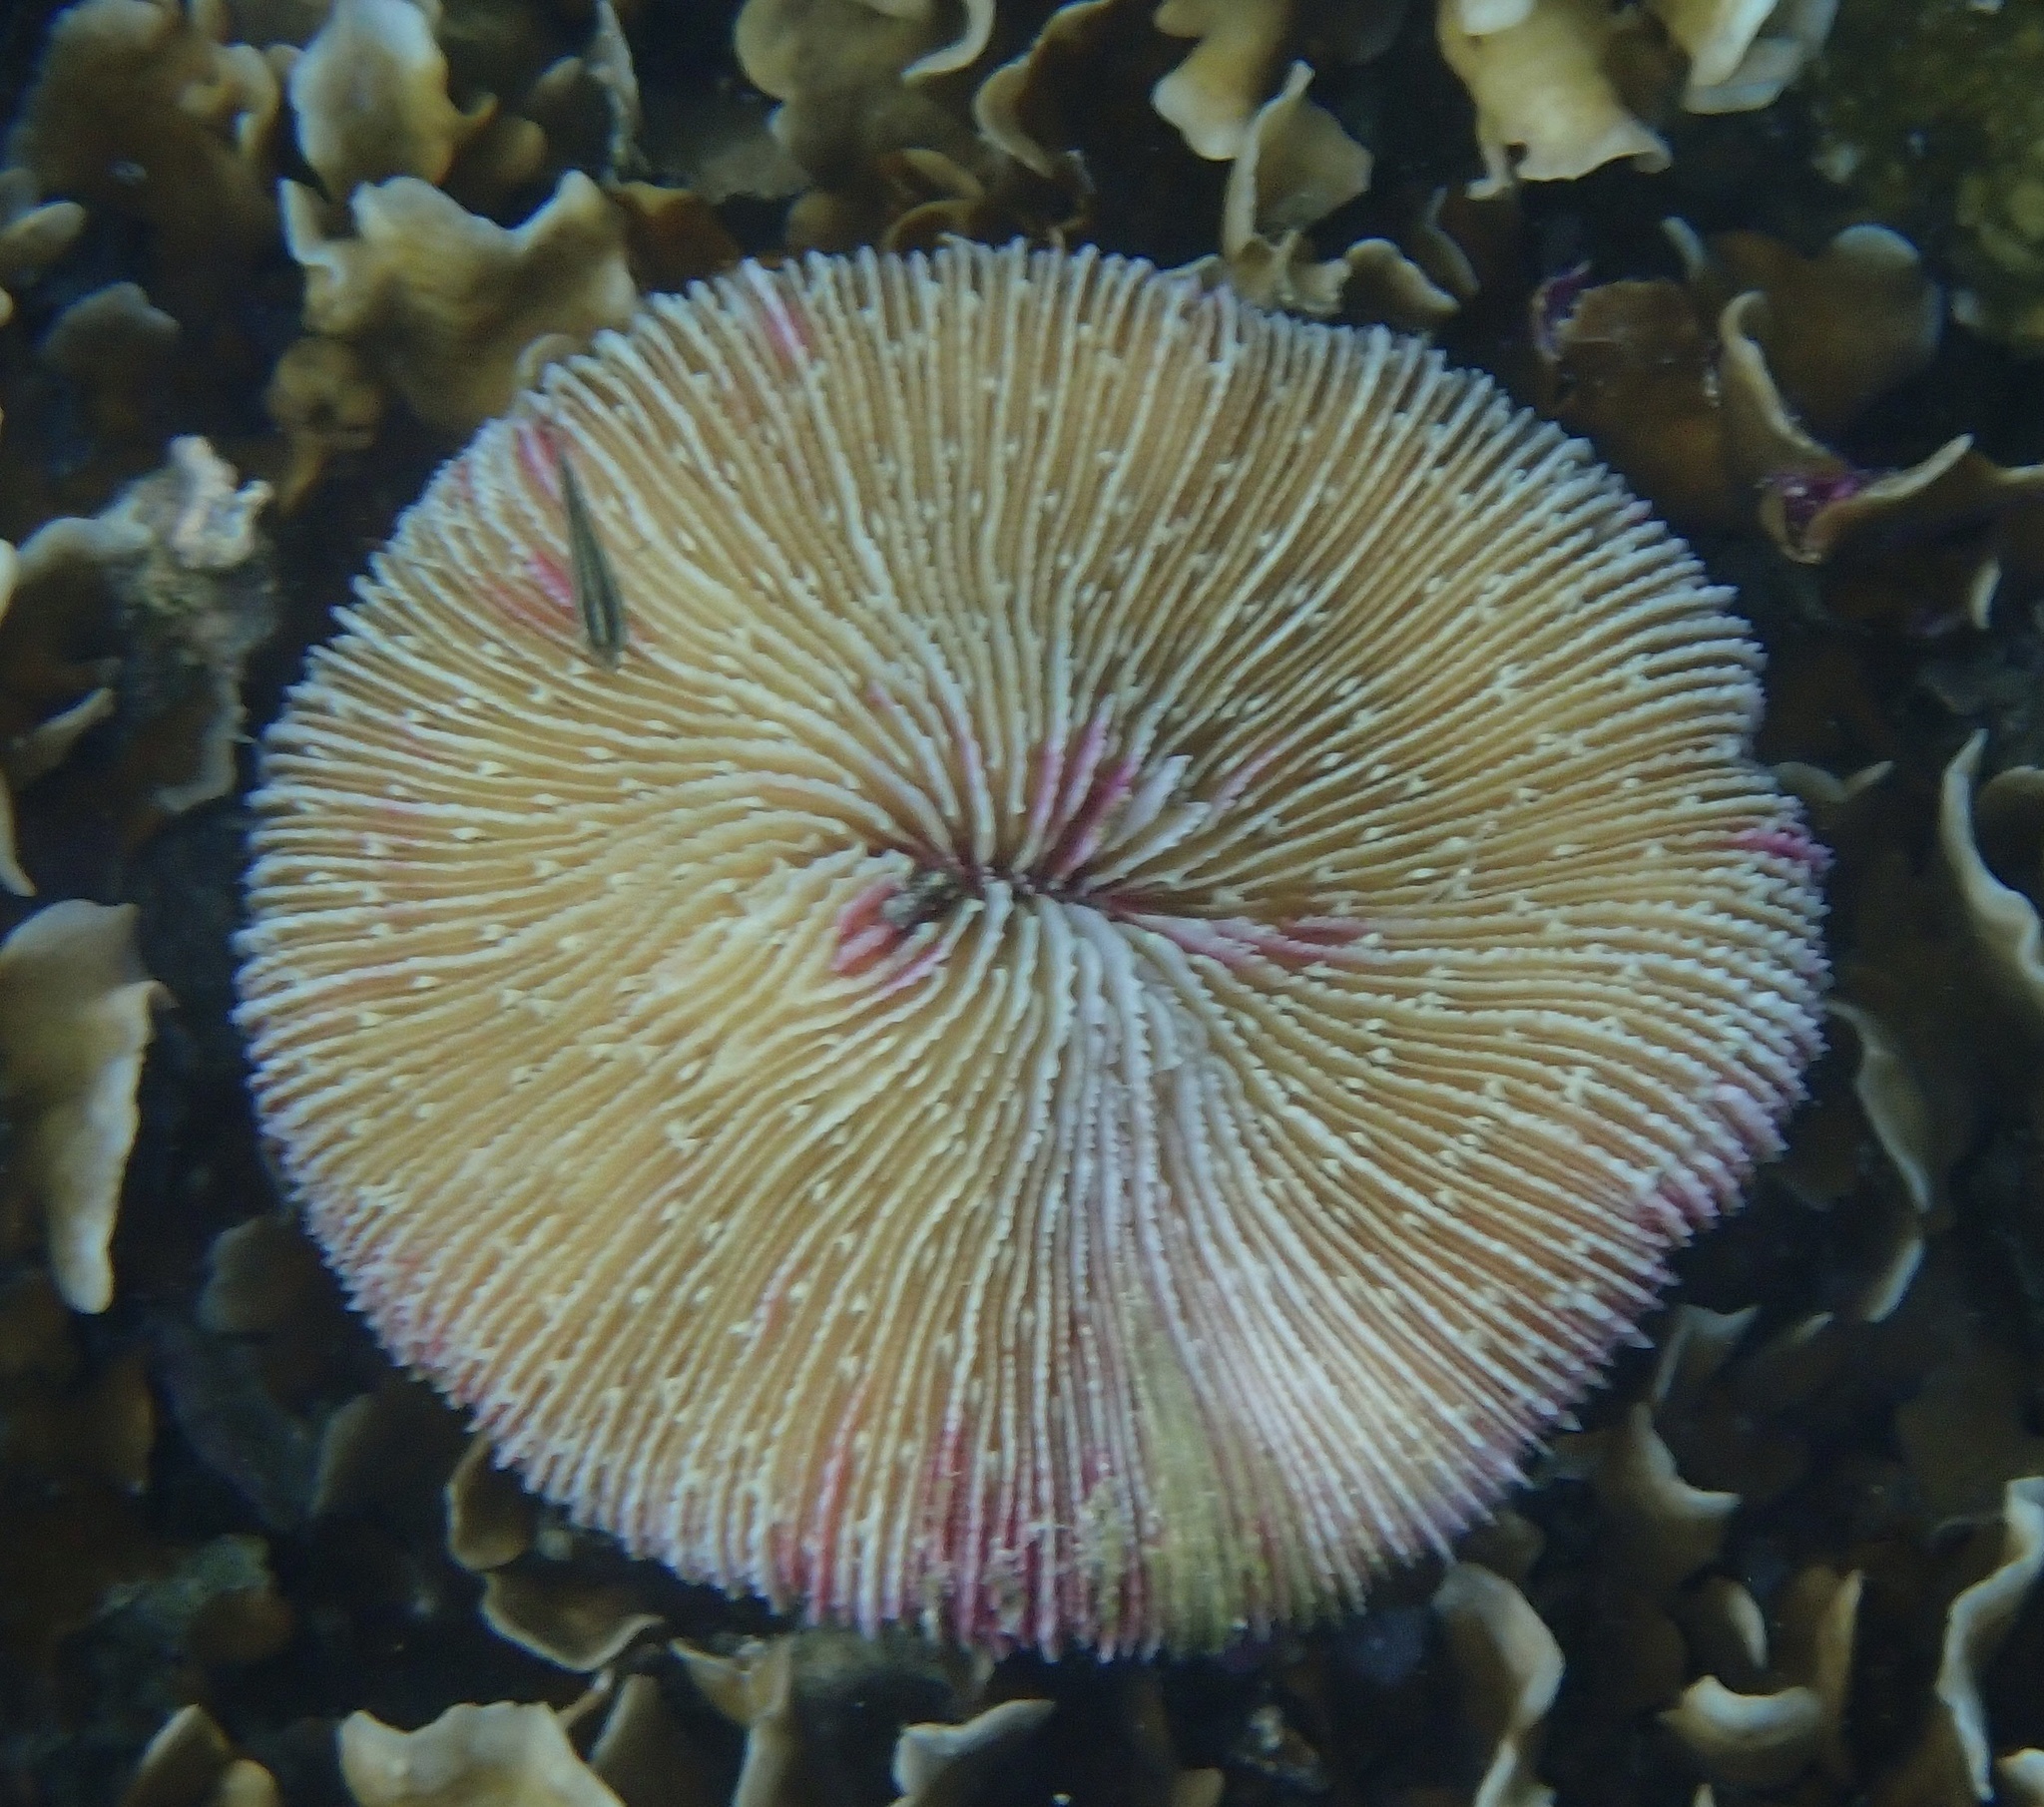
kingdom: Animalia
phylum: Cnidaria
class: Anthozoa
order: Scleractinia
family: Fungiidae
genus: Fungia
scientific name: Fungia fungites
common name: Mushroom coral
